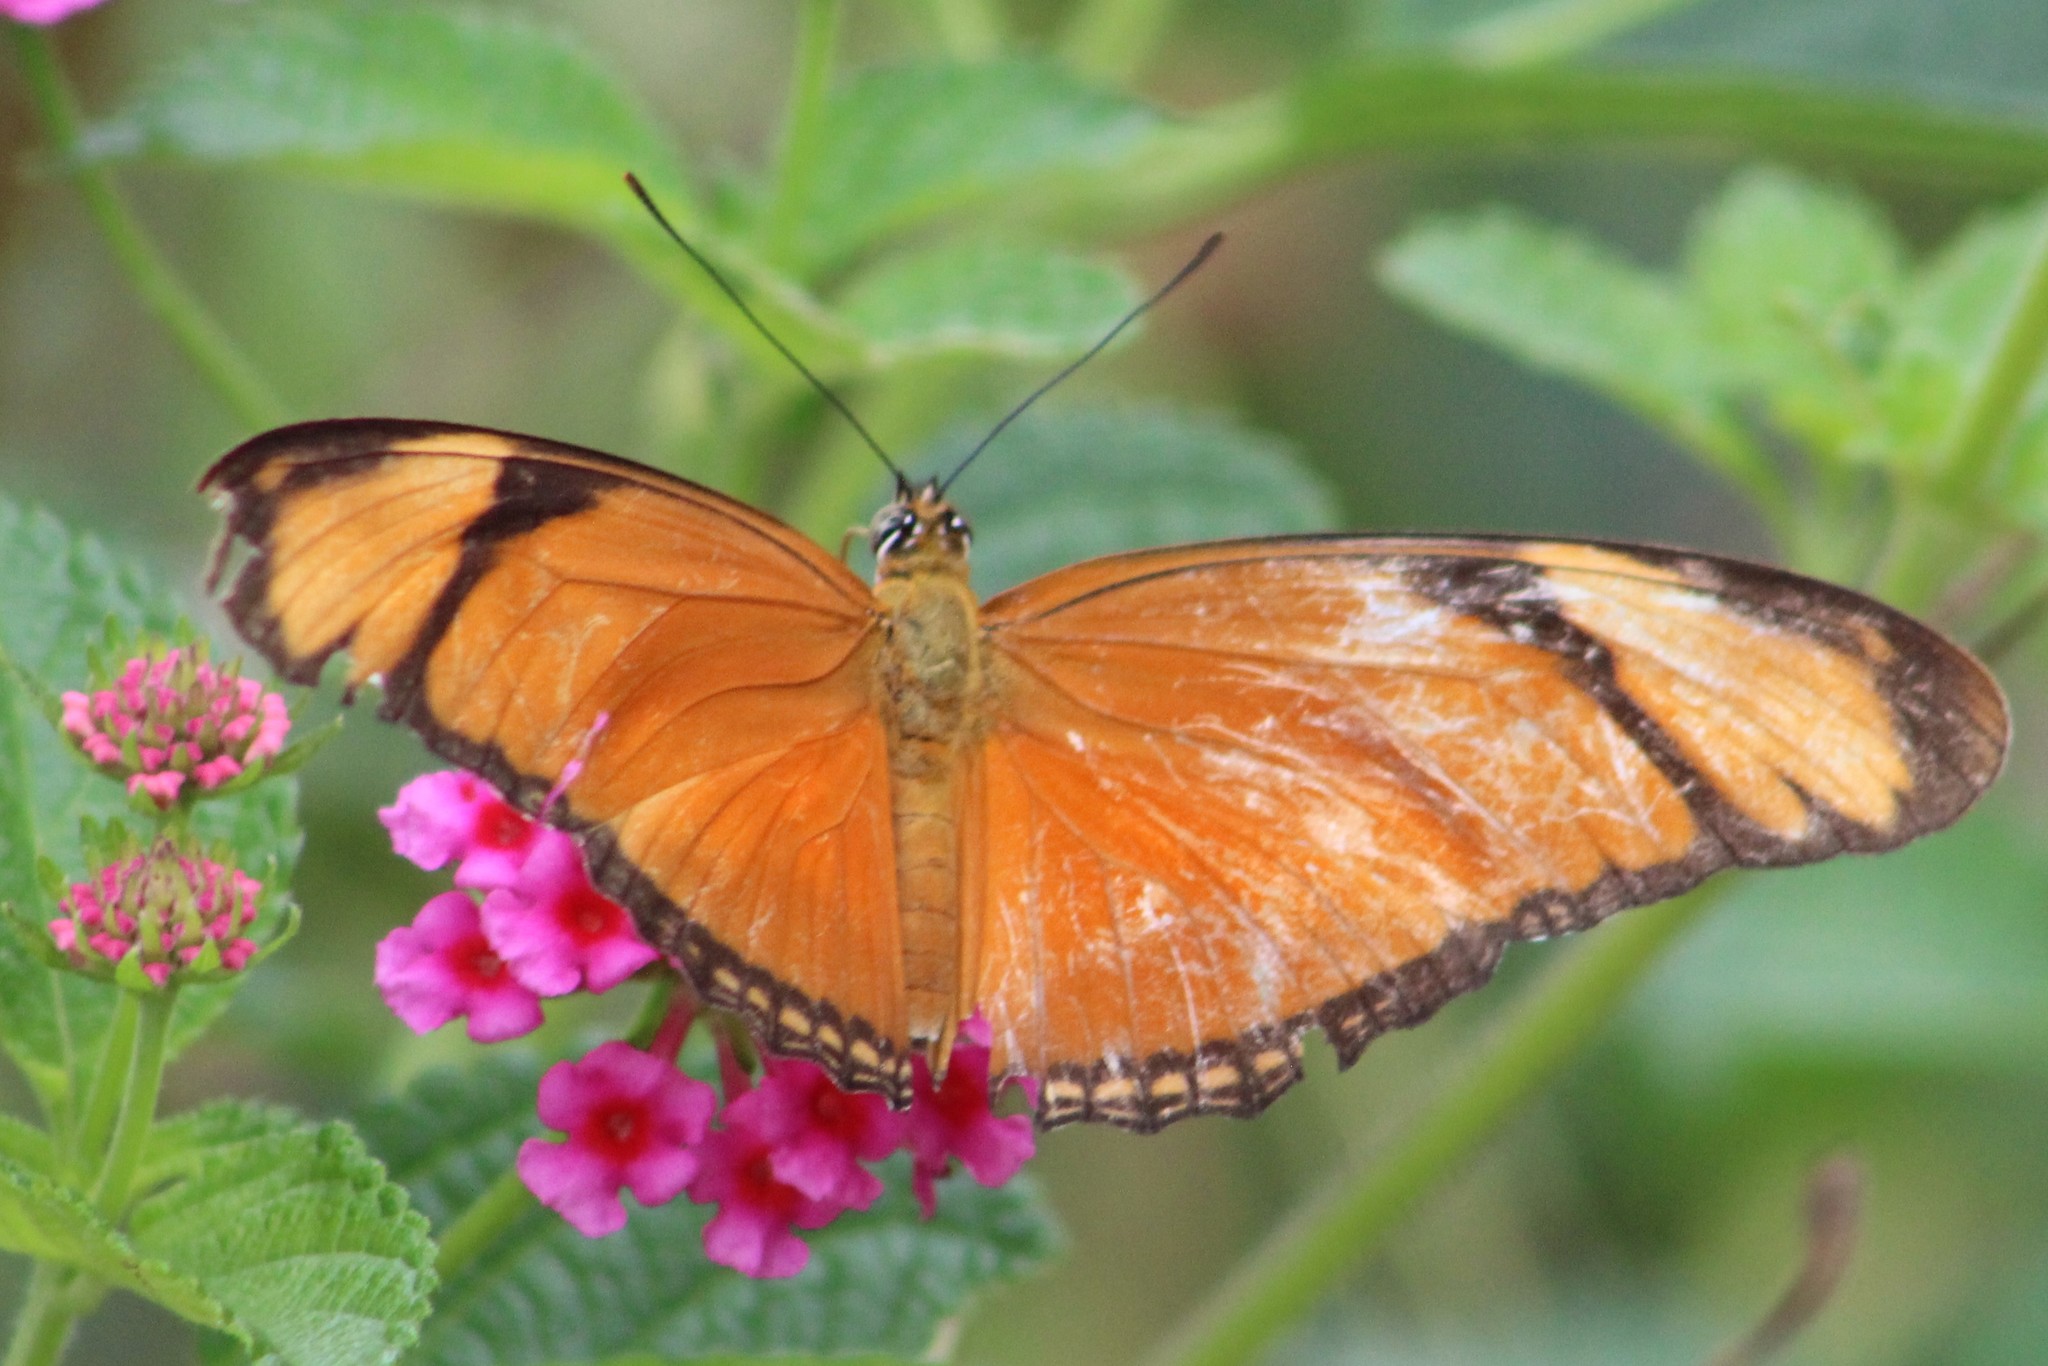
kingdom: Animalia
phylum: Arthropoda
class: Insecta
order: Lepidoptera
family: Nymphalidae
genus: Dryas
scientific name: Dryas iulia
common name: Flambeau
